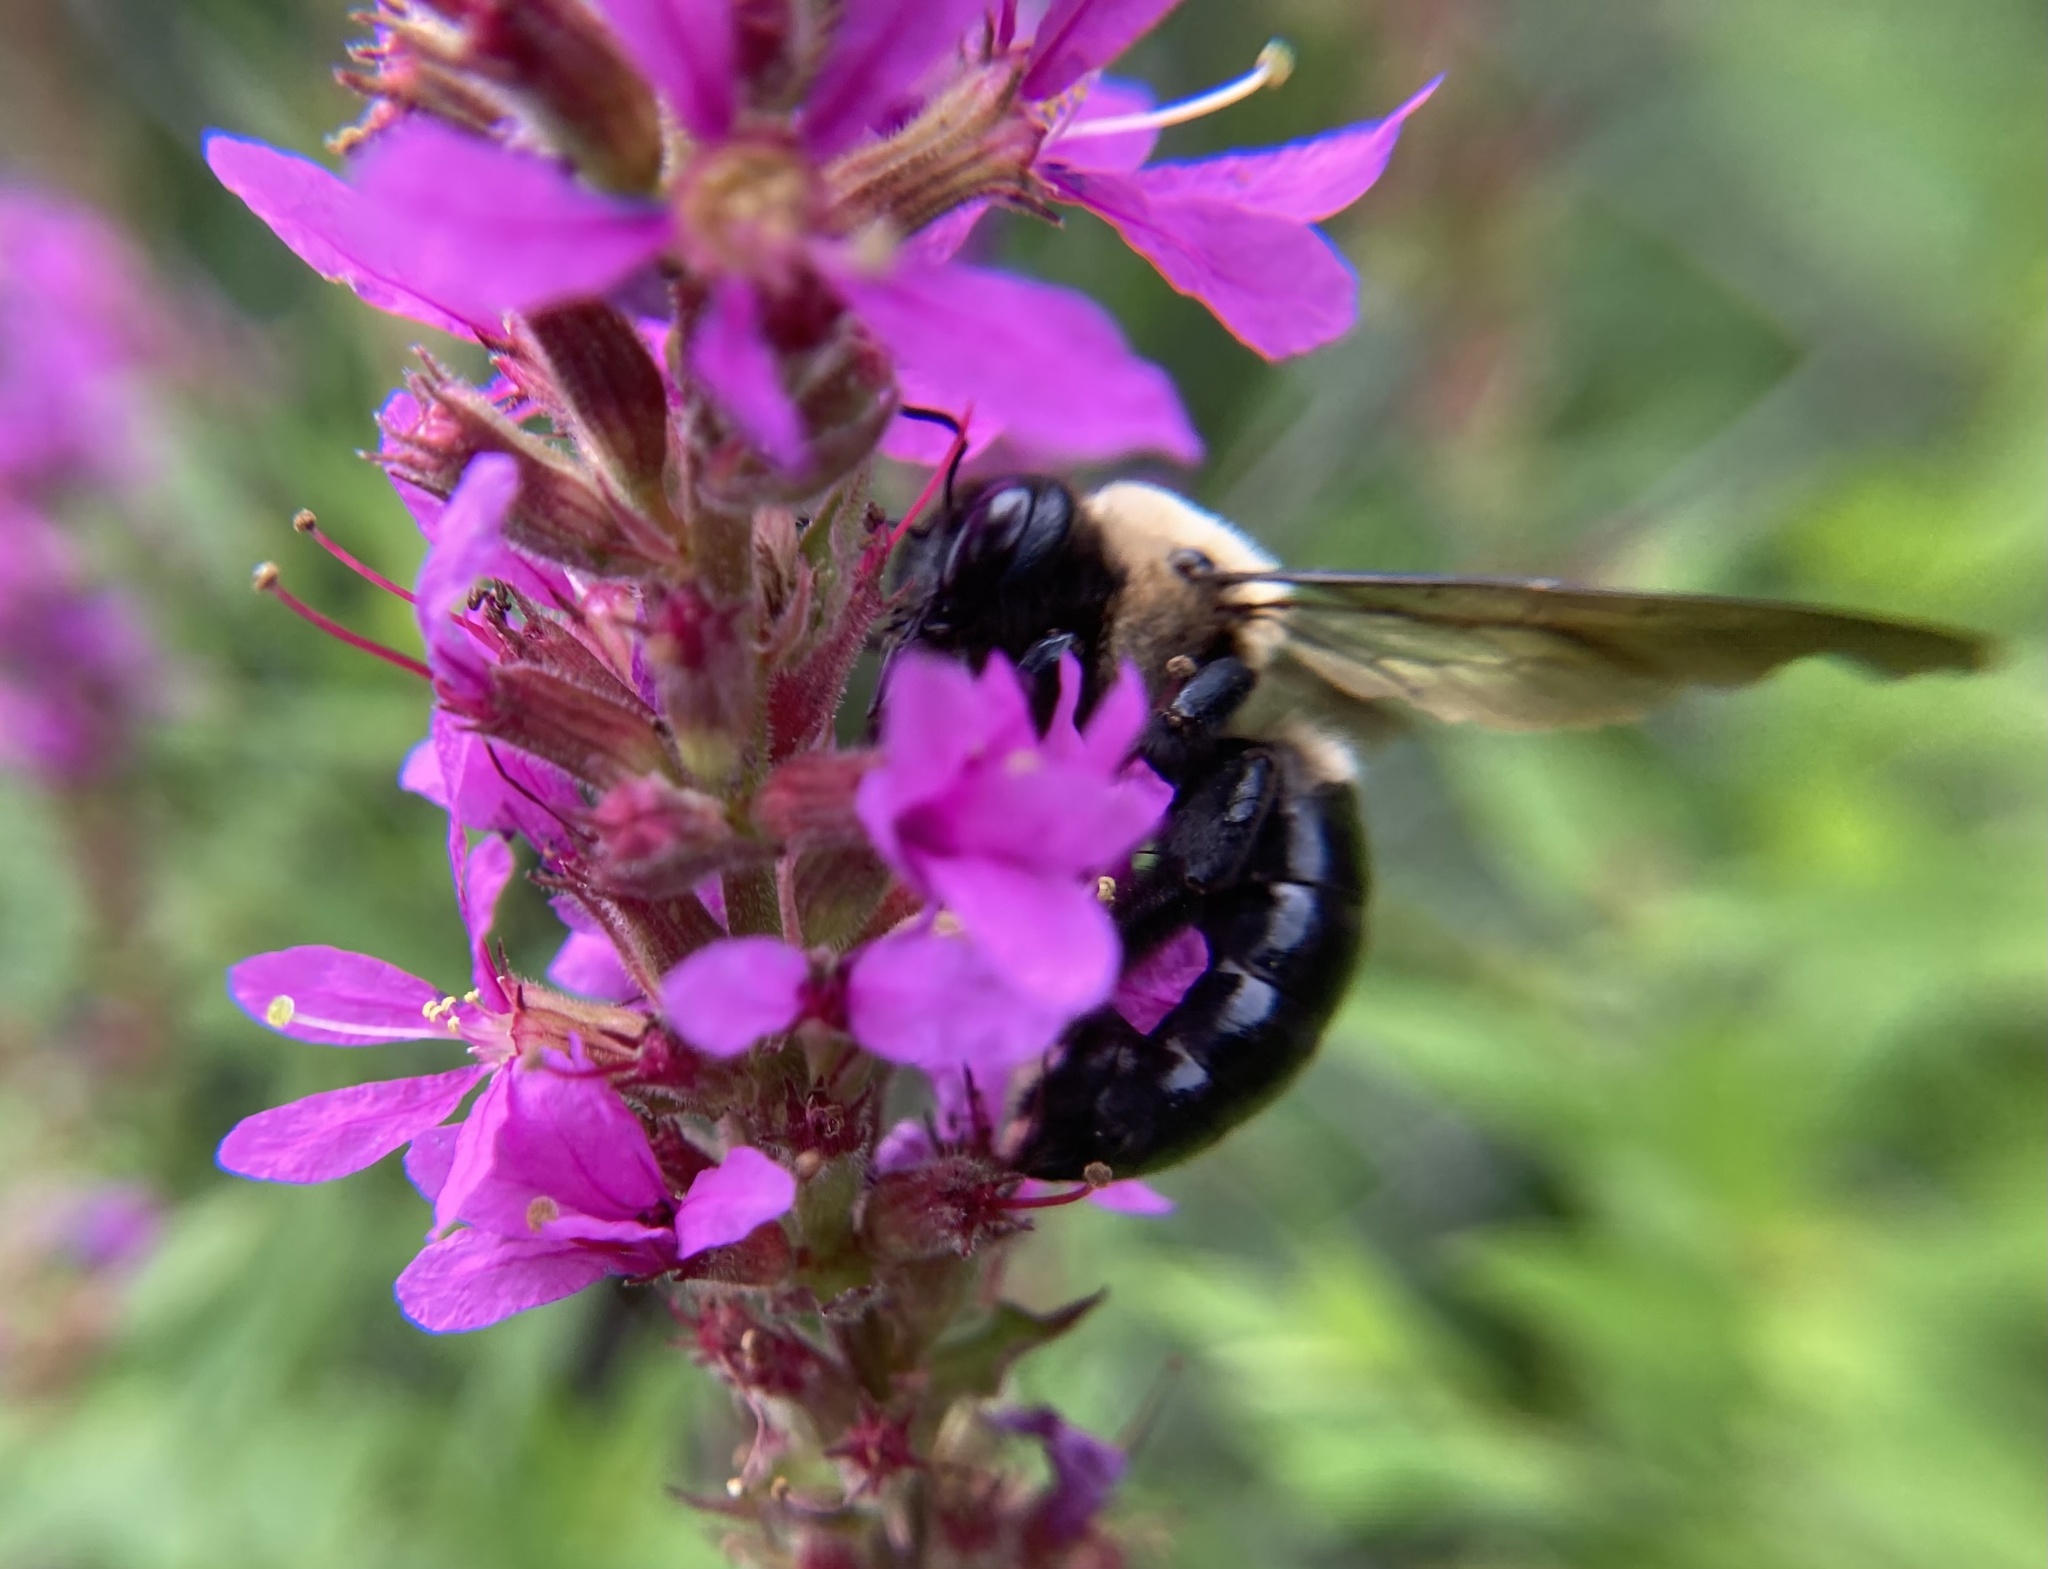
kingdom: Animalia
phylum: Arthropoda
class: Insecta
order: Hymenoptera
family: Apidae
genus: Xylocopa
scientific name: Xylocopa virginica
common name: Carpenter bee
